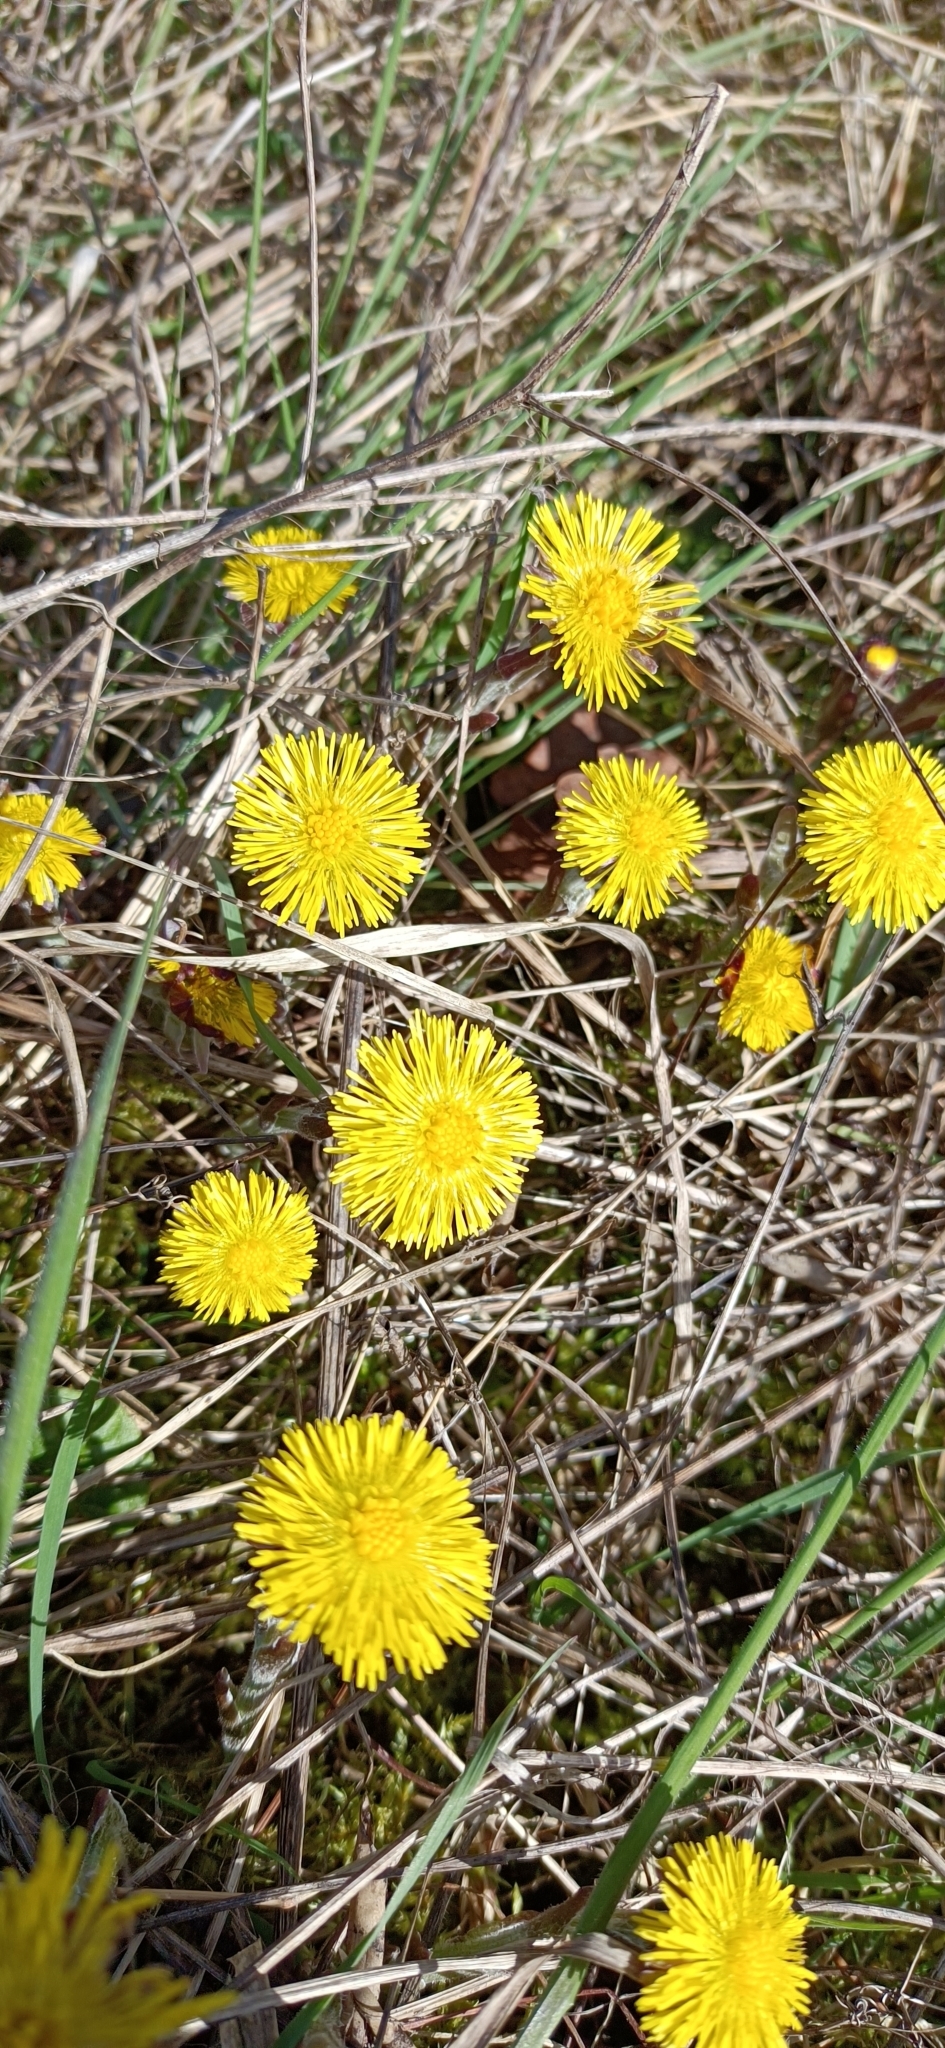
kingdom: Plantae
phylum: Tracheophyta
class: Magnoliopsida
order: Asterales
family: Asteraceae
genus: Tussilago
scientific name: Tussilago farfara
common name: Coltsfoot
